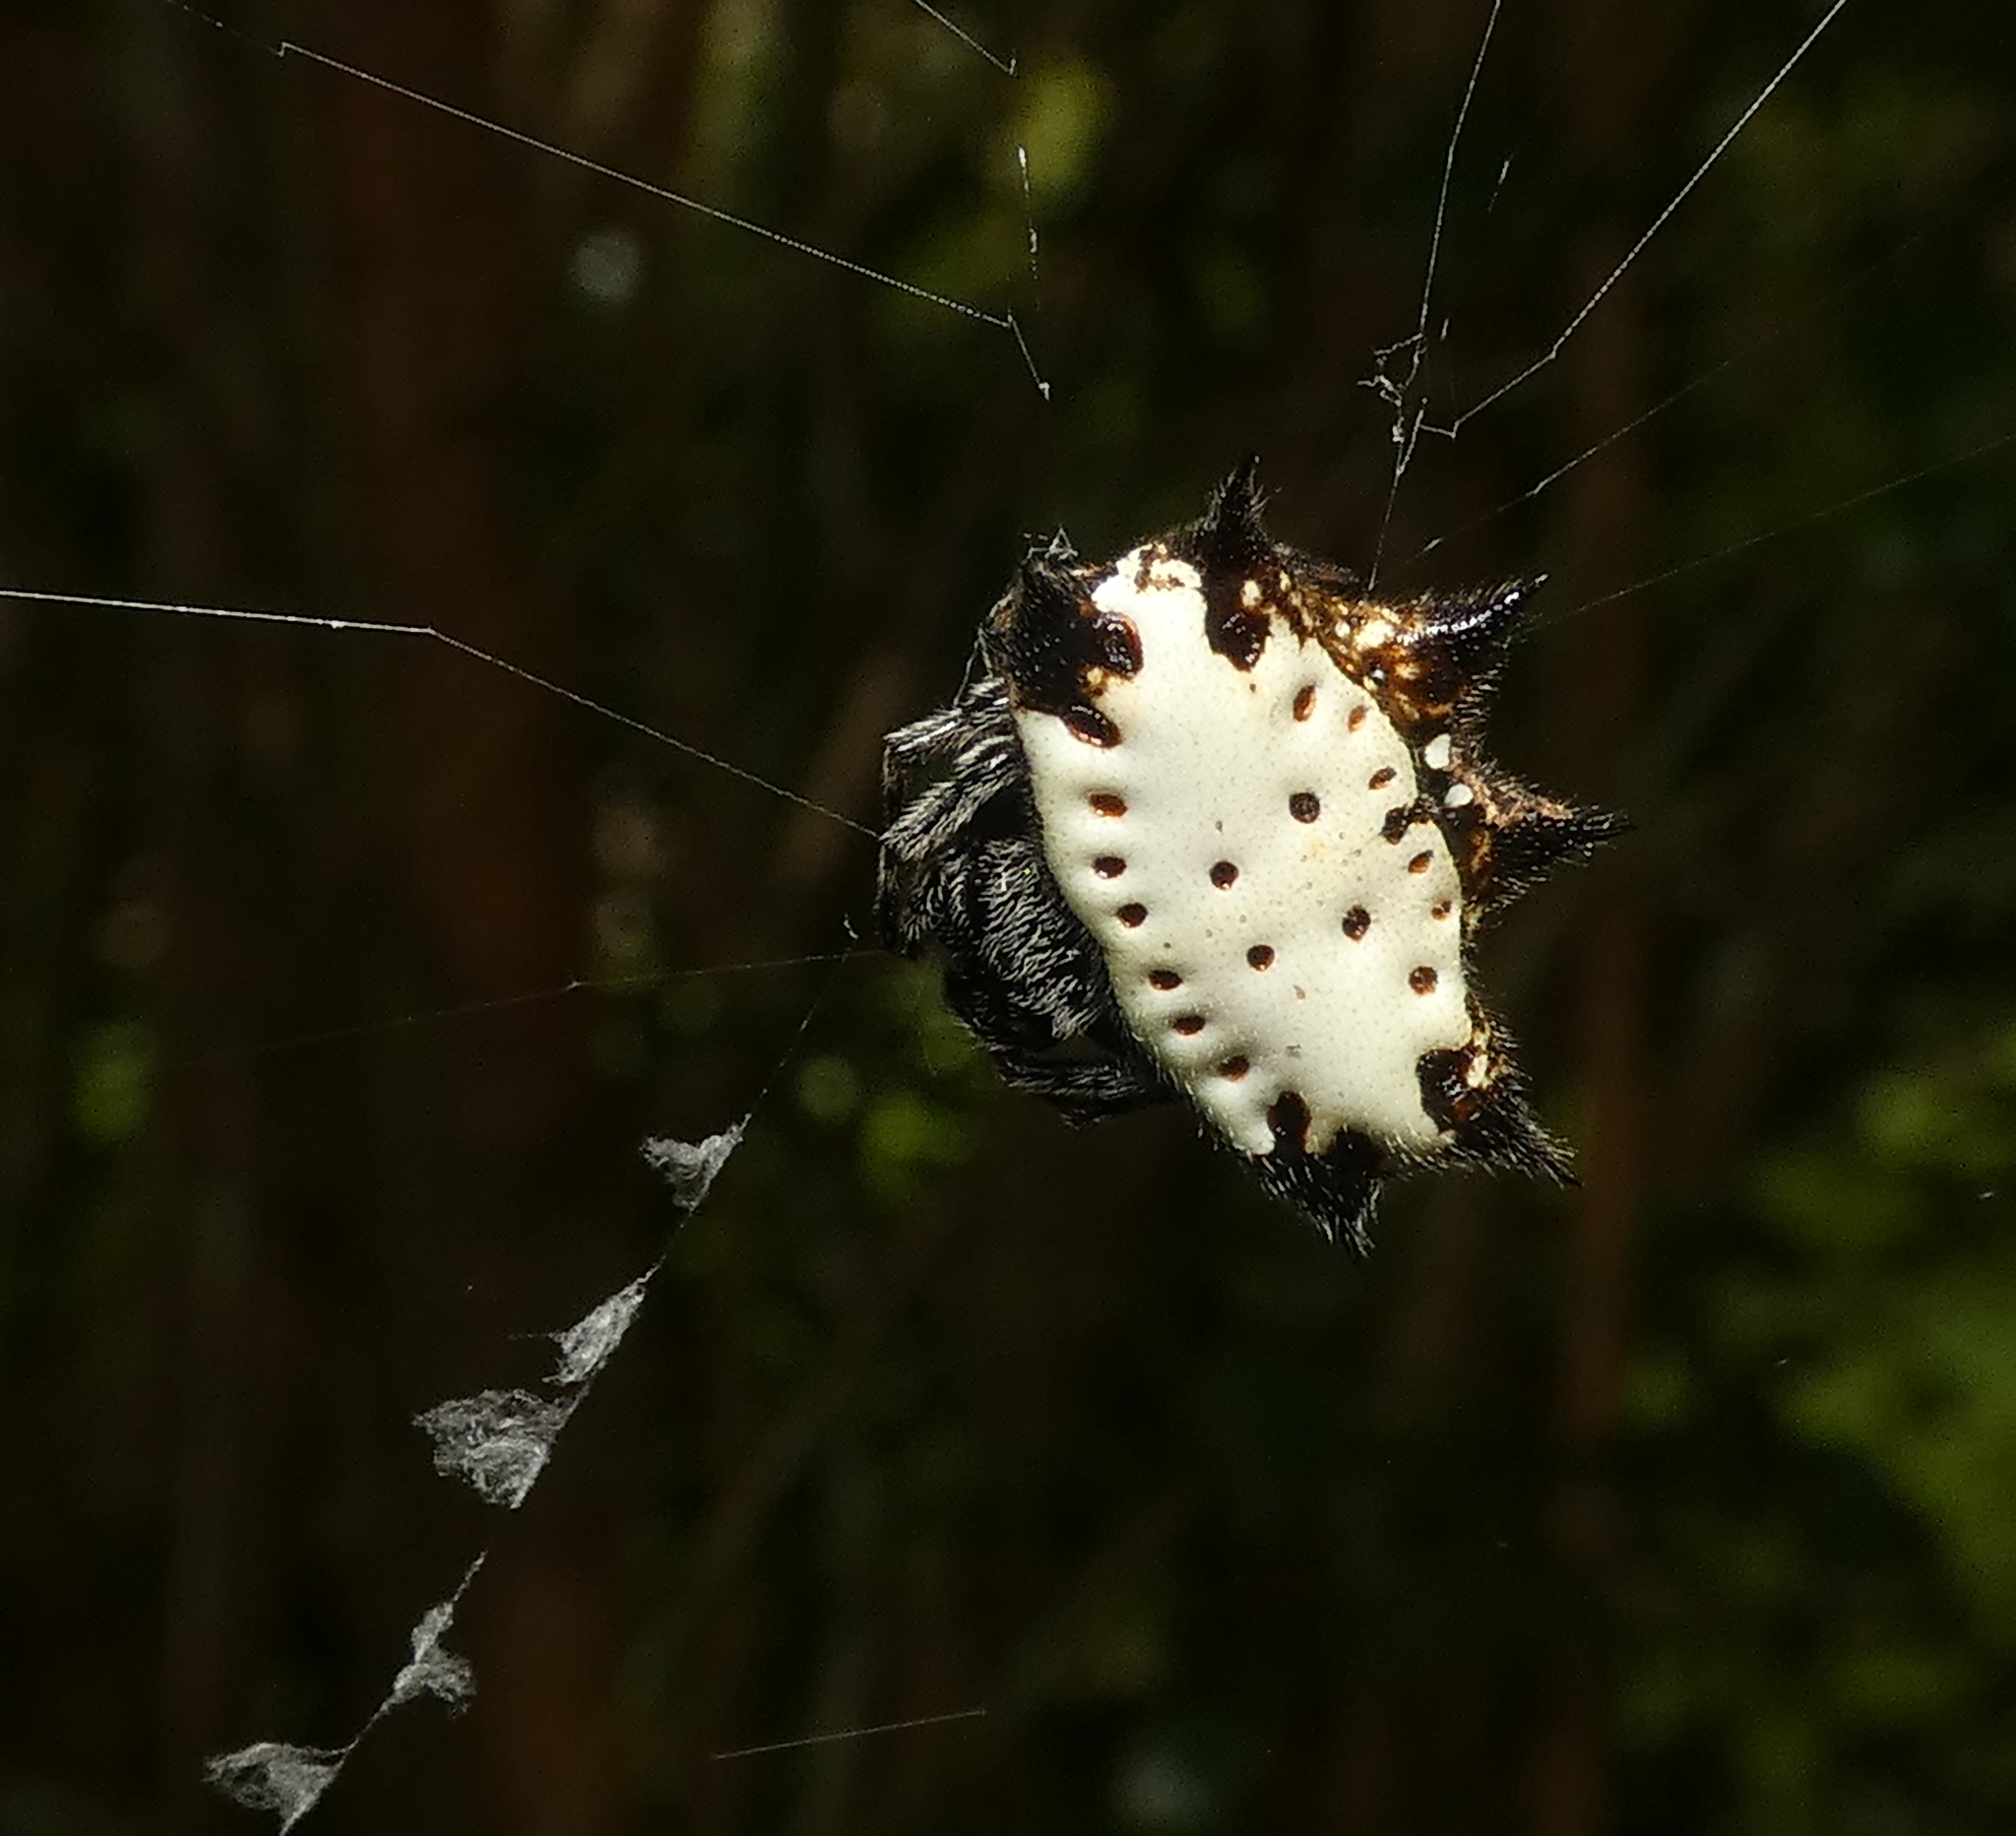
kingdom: Animalia
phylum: Arthropoda
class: Arachnida
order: Araneae
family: Araneidae
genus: Gasteracantha
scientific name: Gasteracantha cancriformis
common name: Orb weavers
